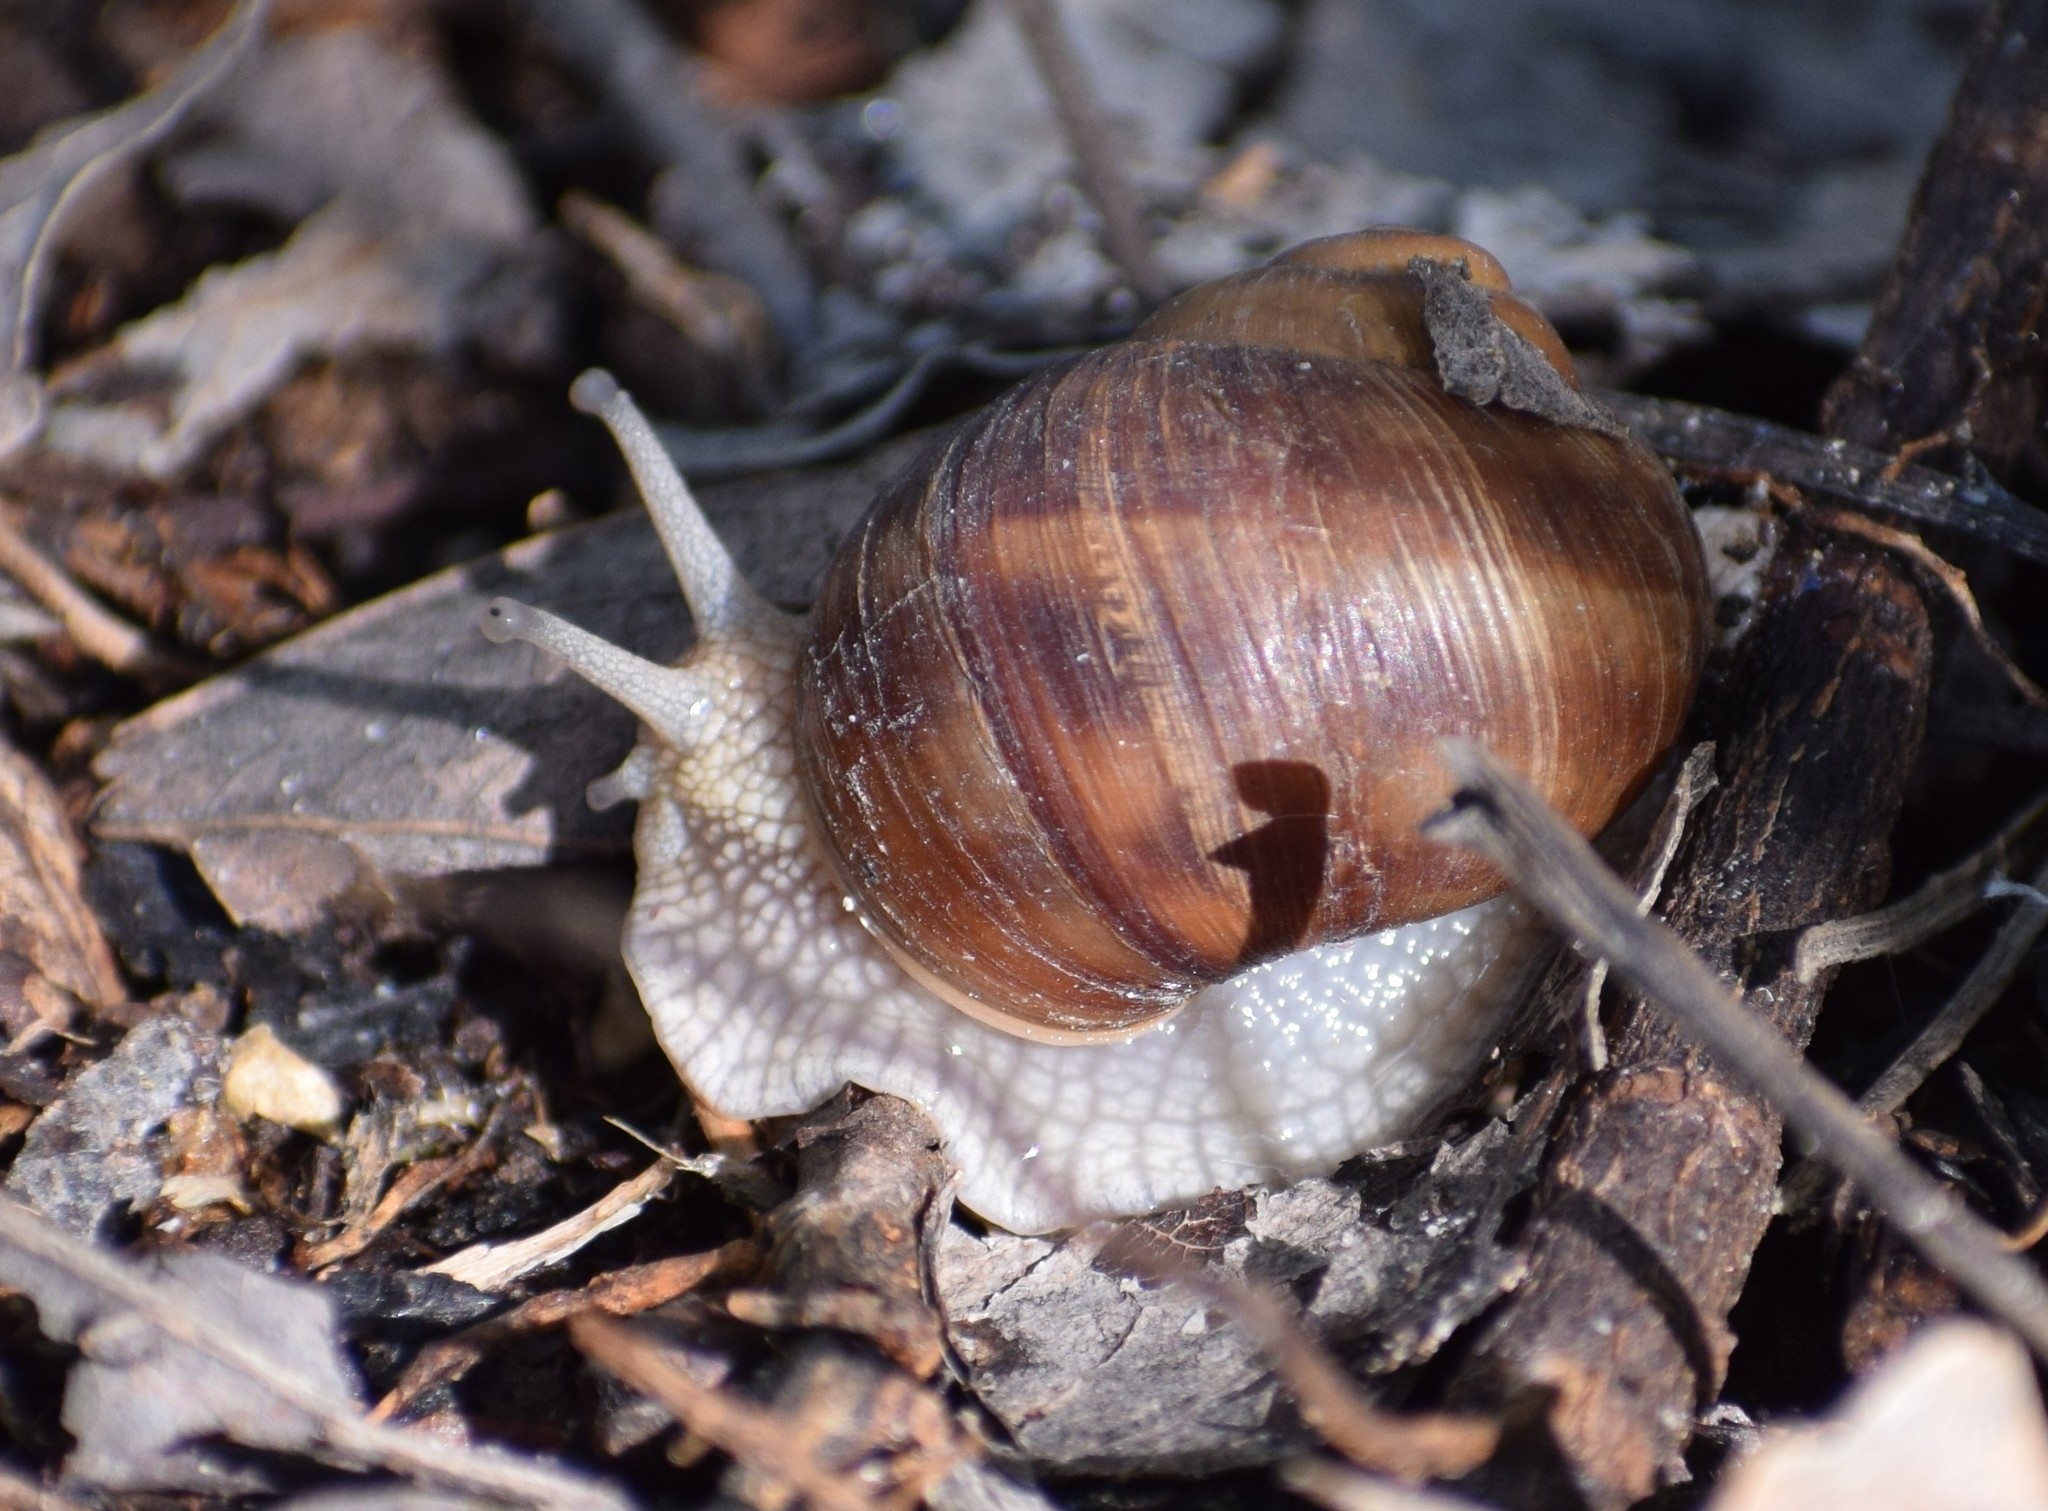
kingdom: Animalia
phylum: Mollusca
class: Gastropoda
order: Stylommatophora
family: Helicidae
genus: Helix
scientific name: Helix pomatia
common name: Roman snail
